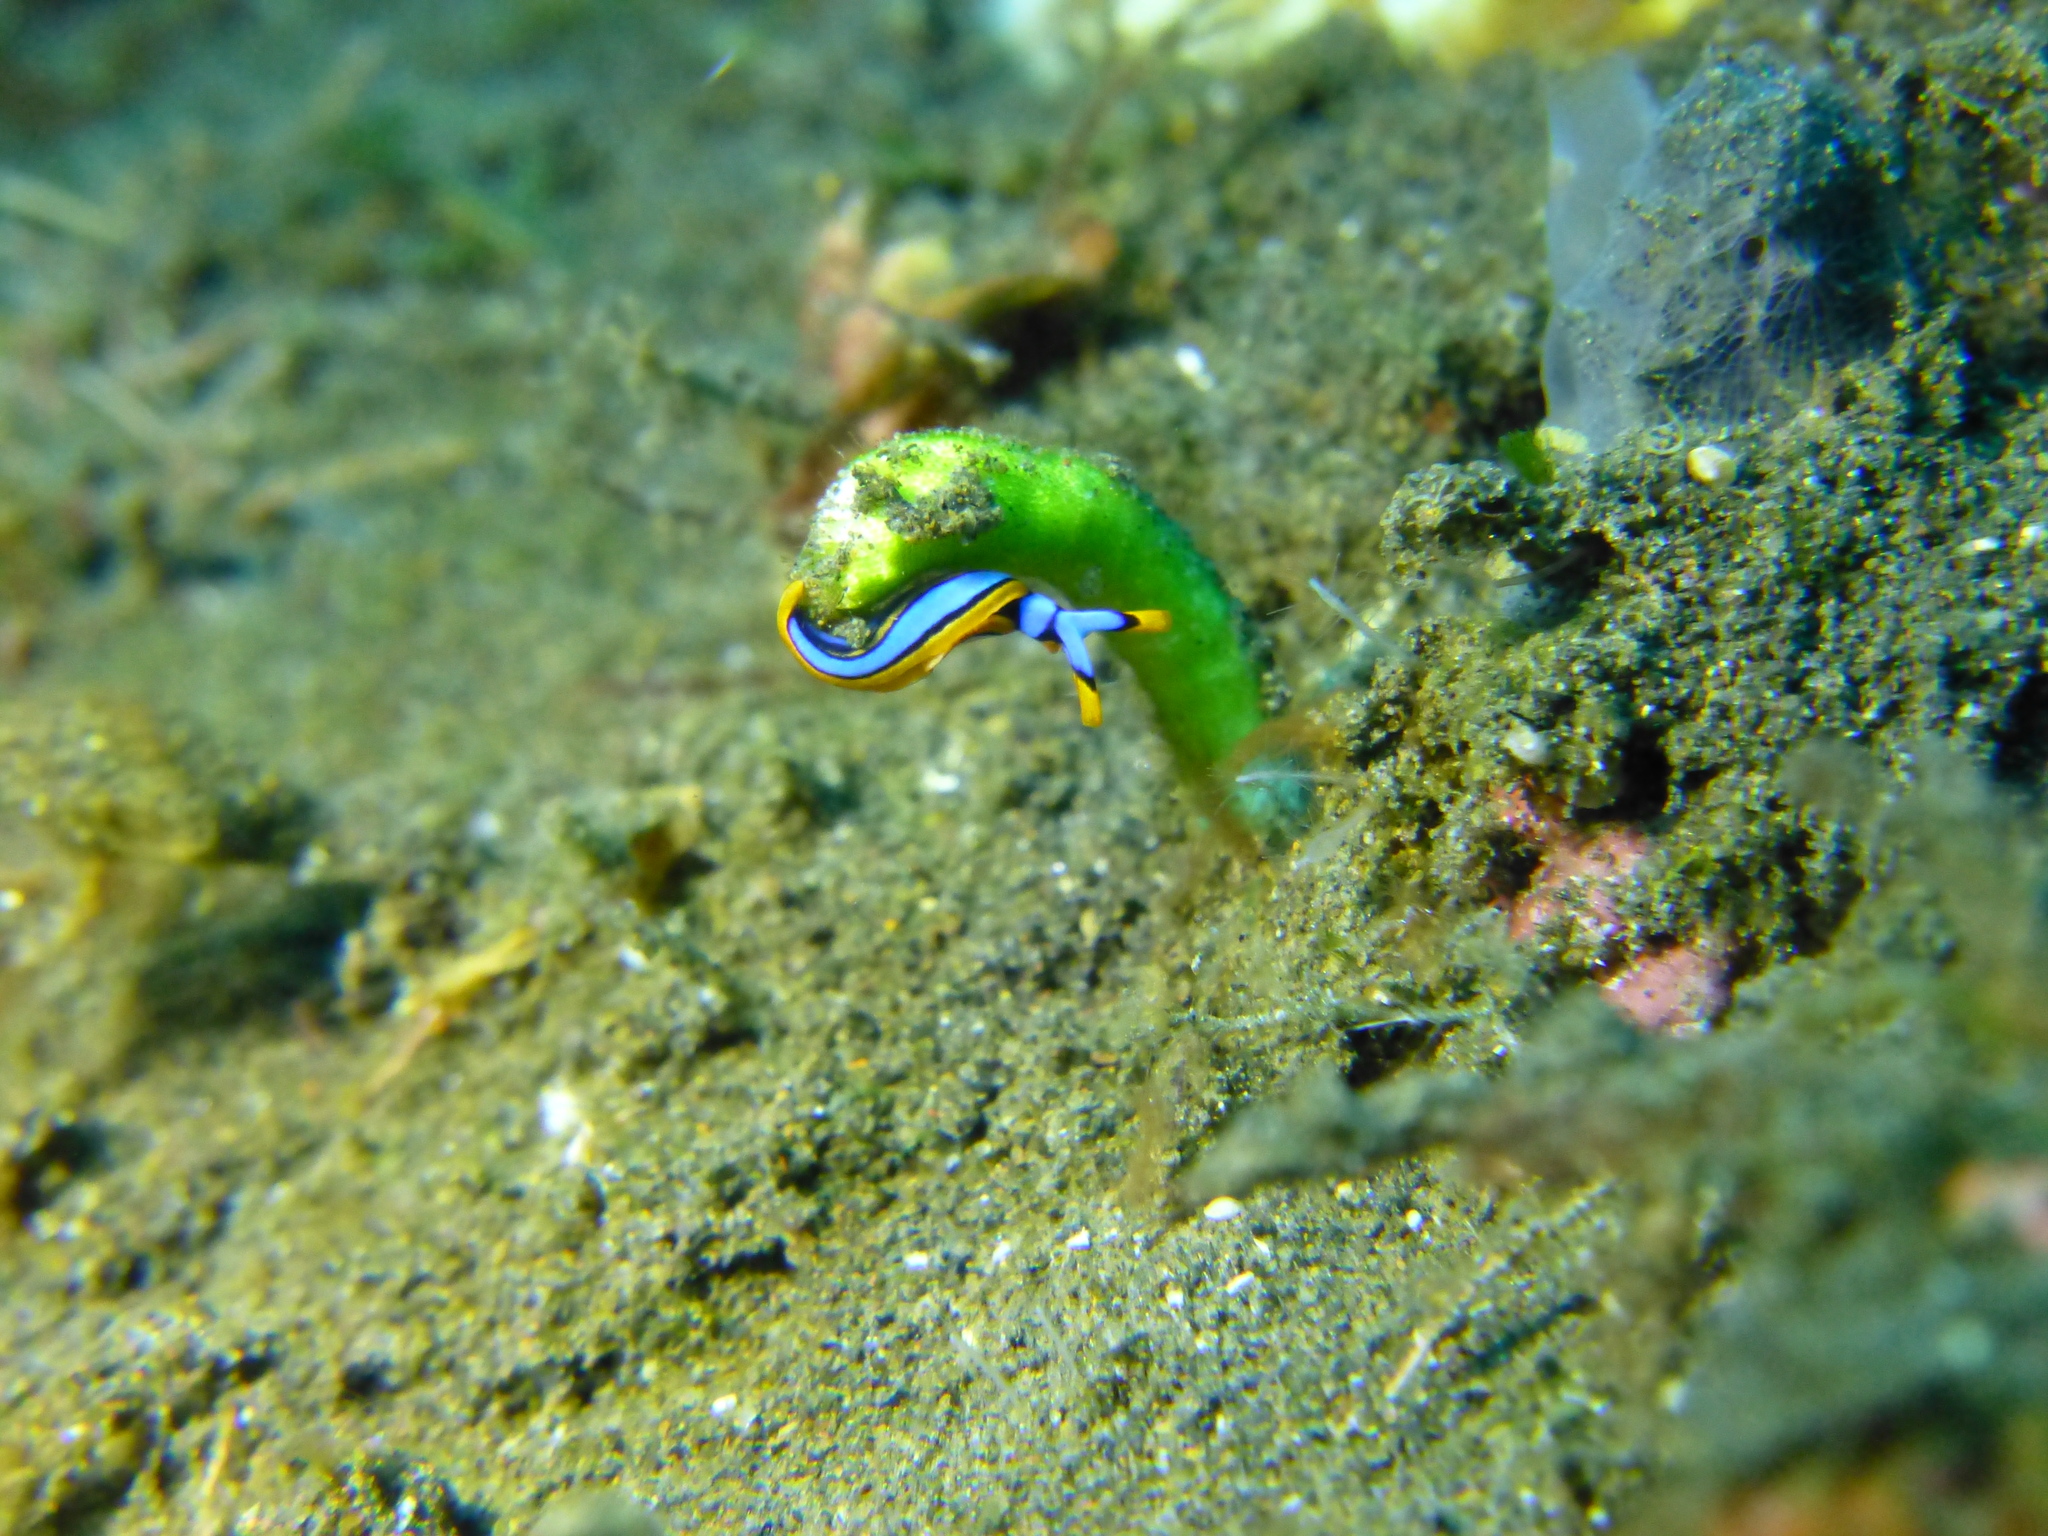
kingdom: Animalia
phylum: Mollusca
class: Gastropoda
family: Plakobranchidae
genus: Thuridilla
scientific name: Thuridilla lineolata
